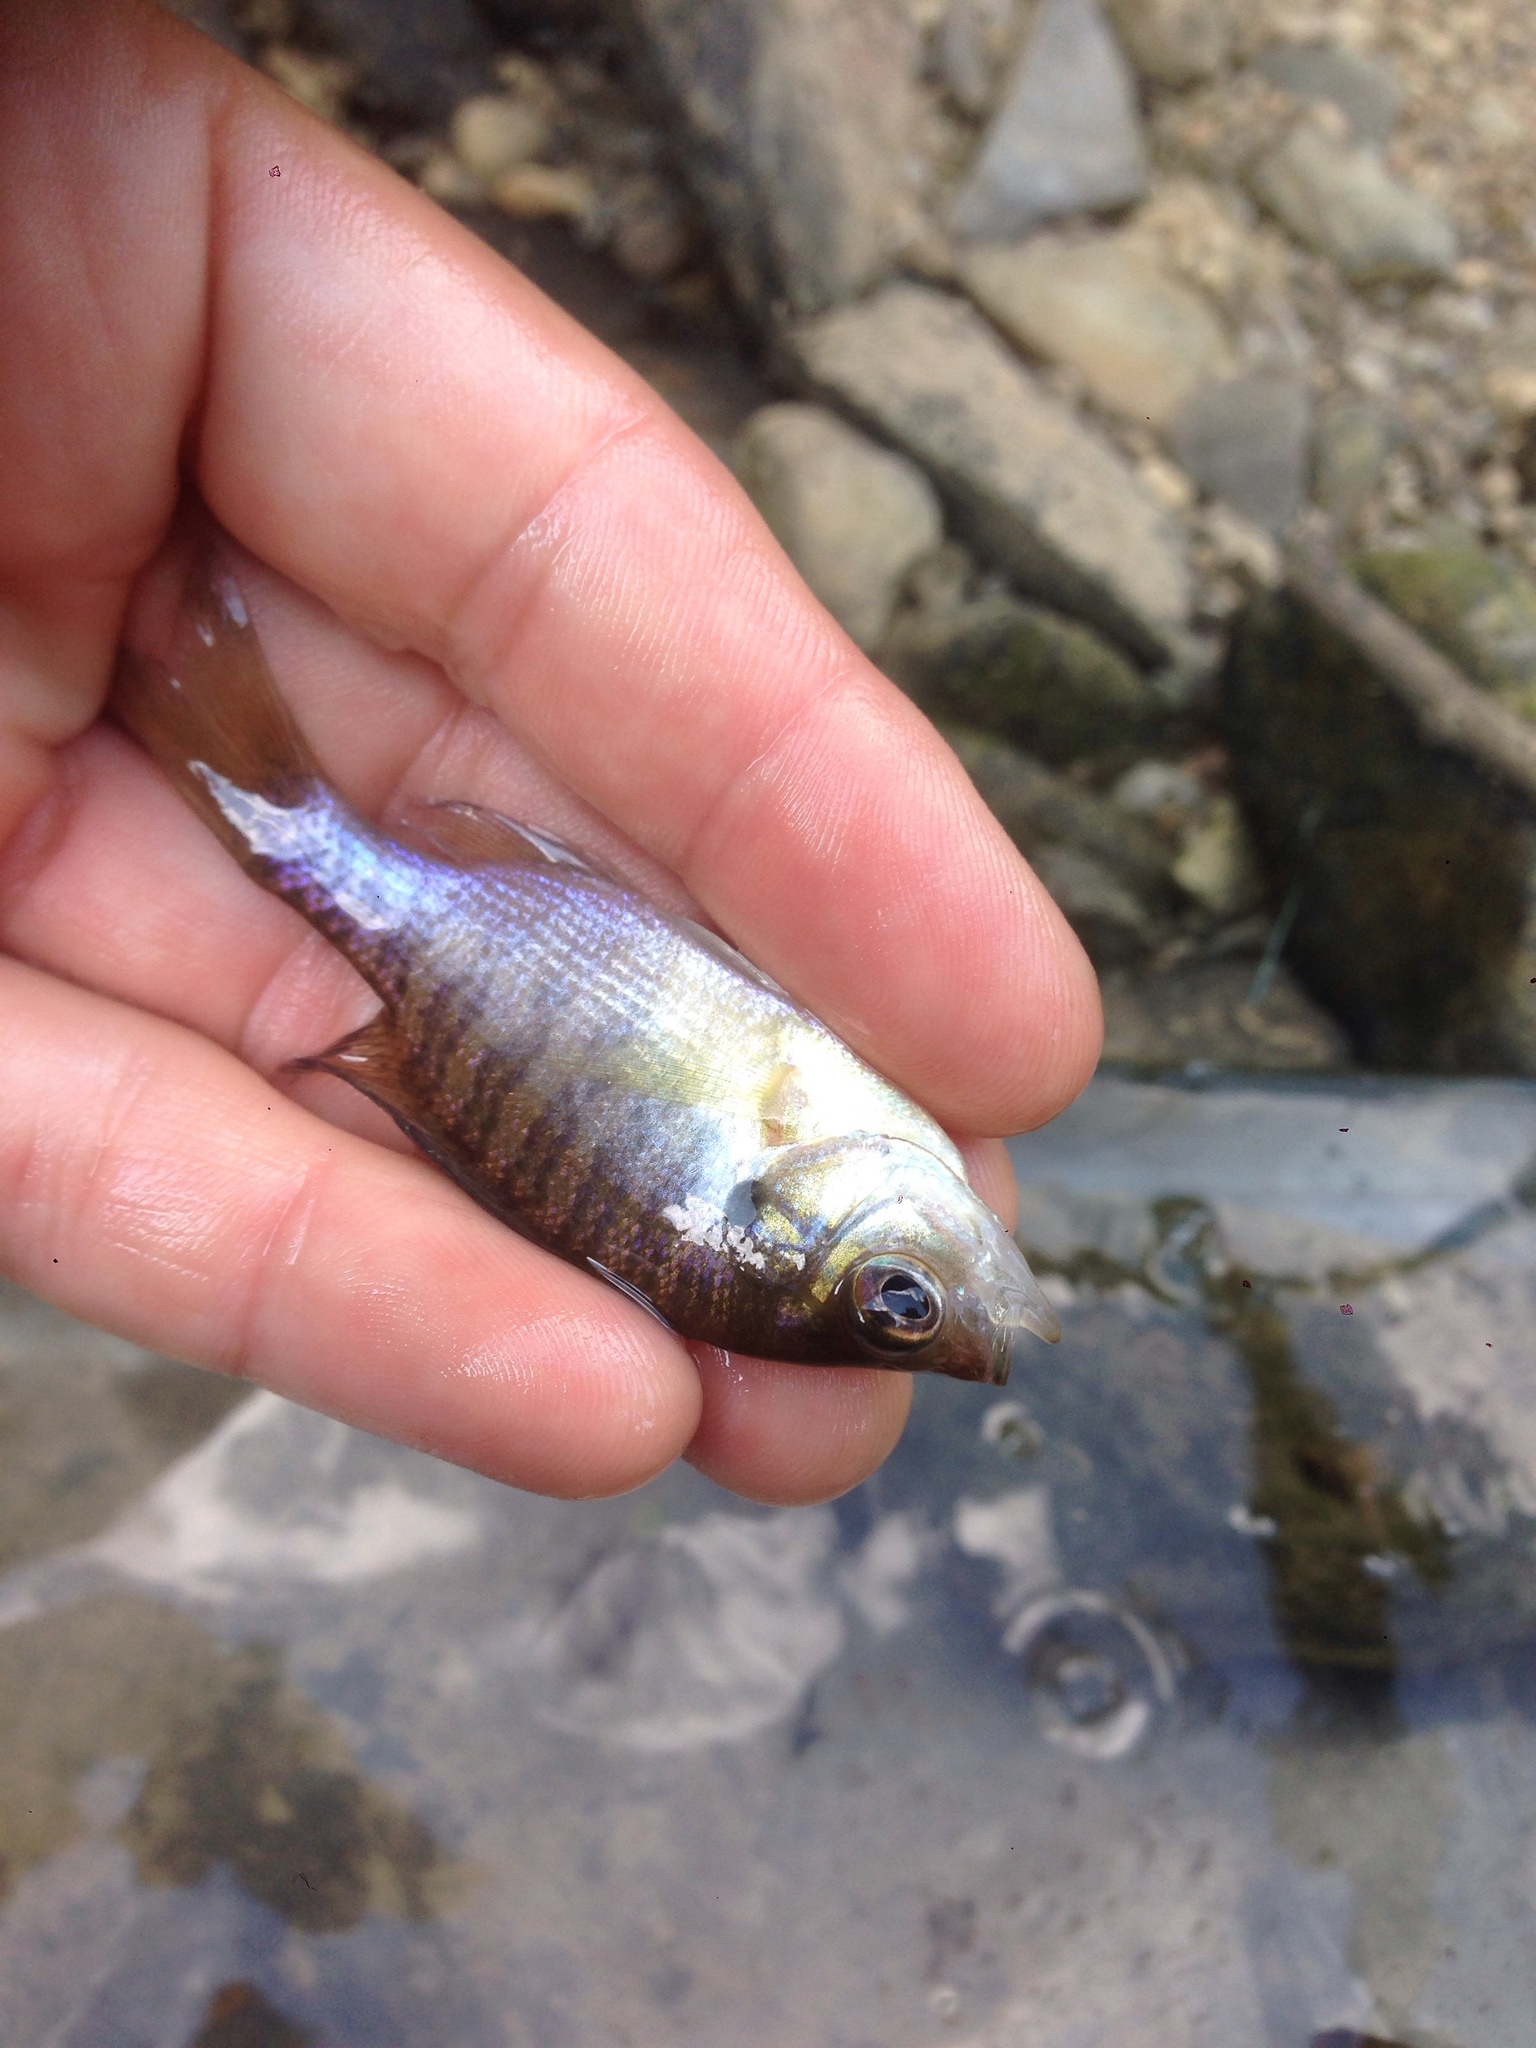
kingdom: Animalia
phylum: Chordata
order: Perciformes
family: Centrarchidae
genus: Lepomis
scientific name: Lepomis macrochirus
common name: Bluegill
